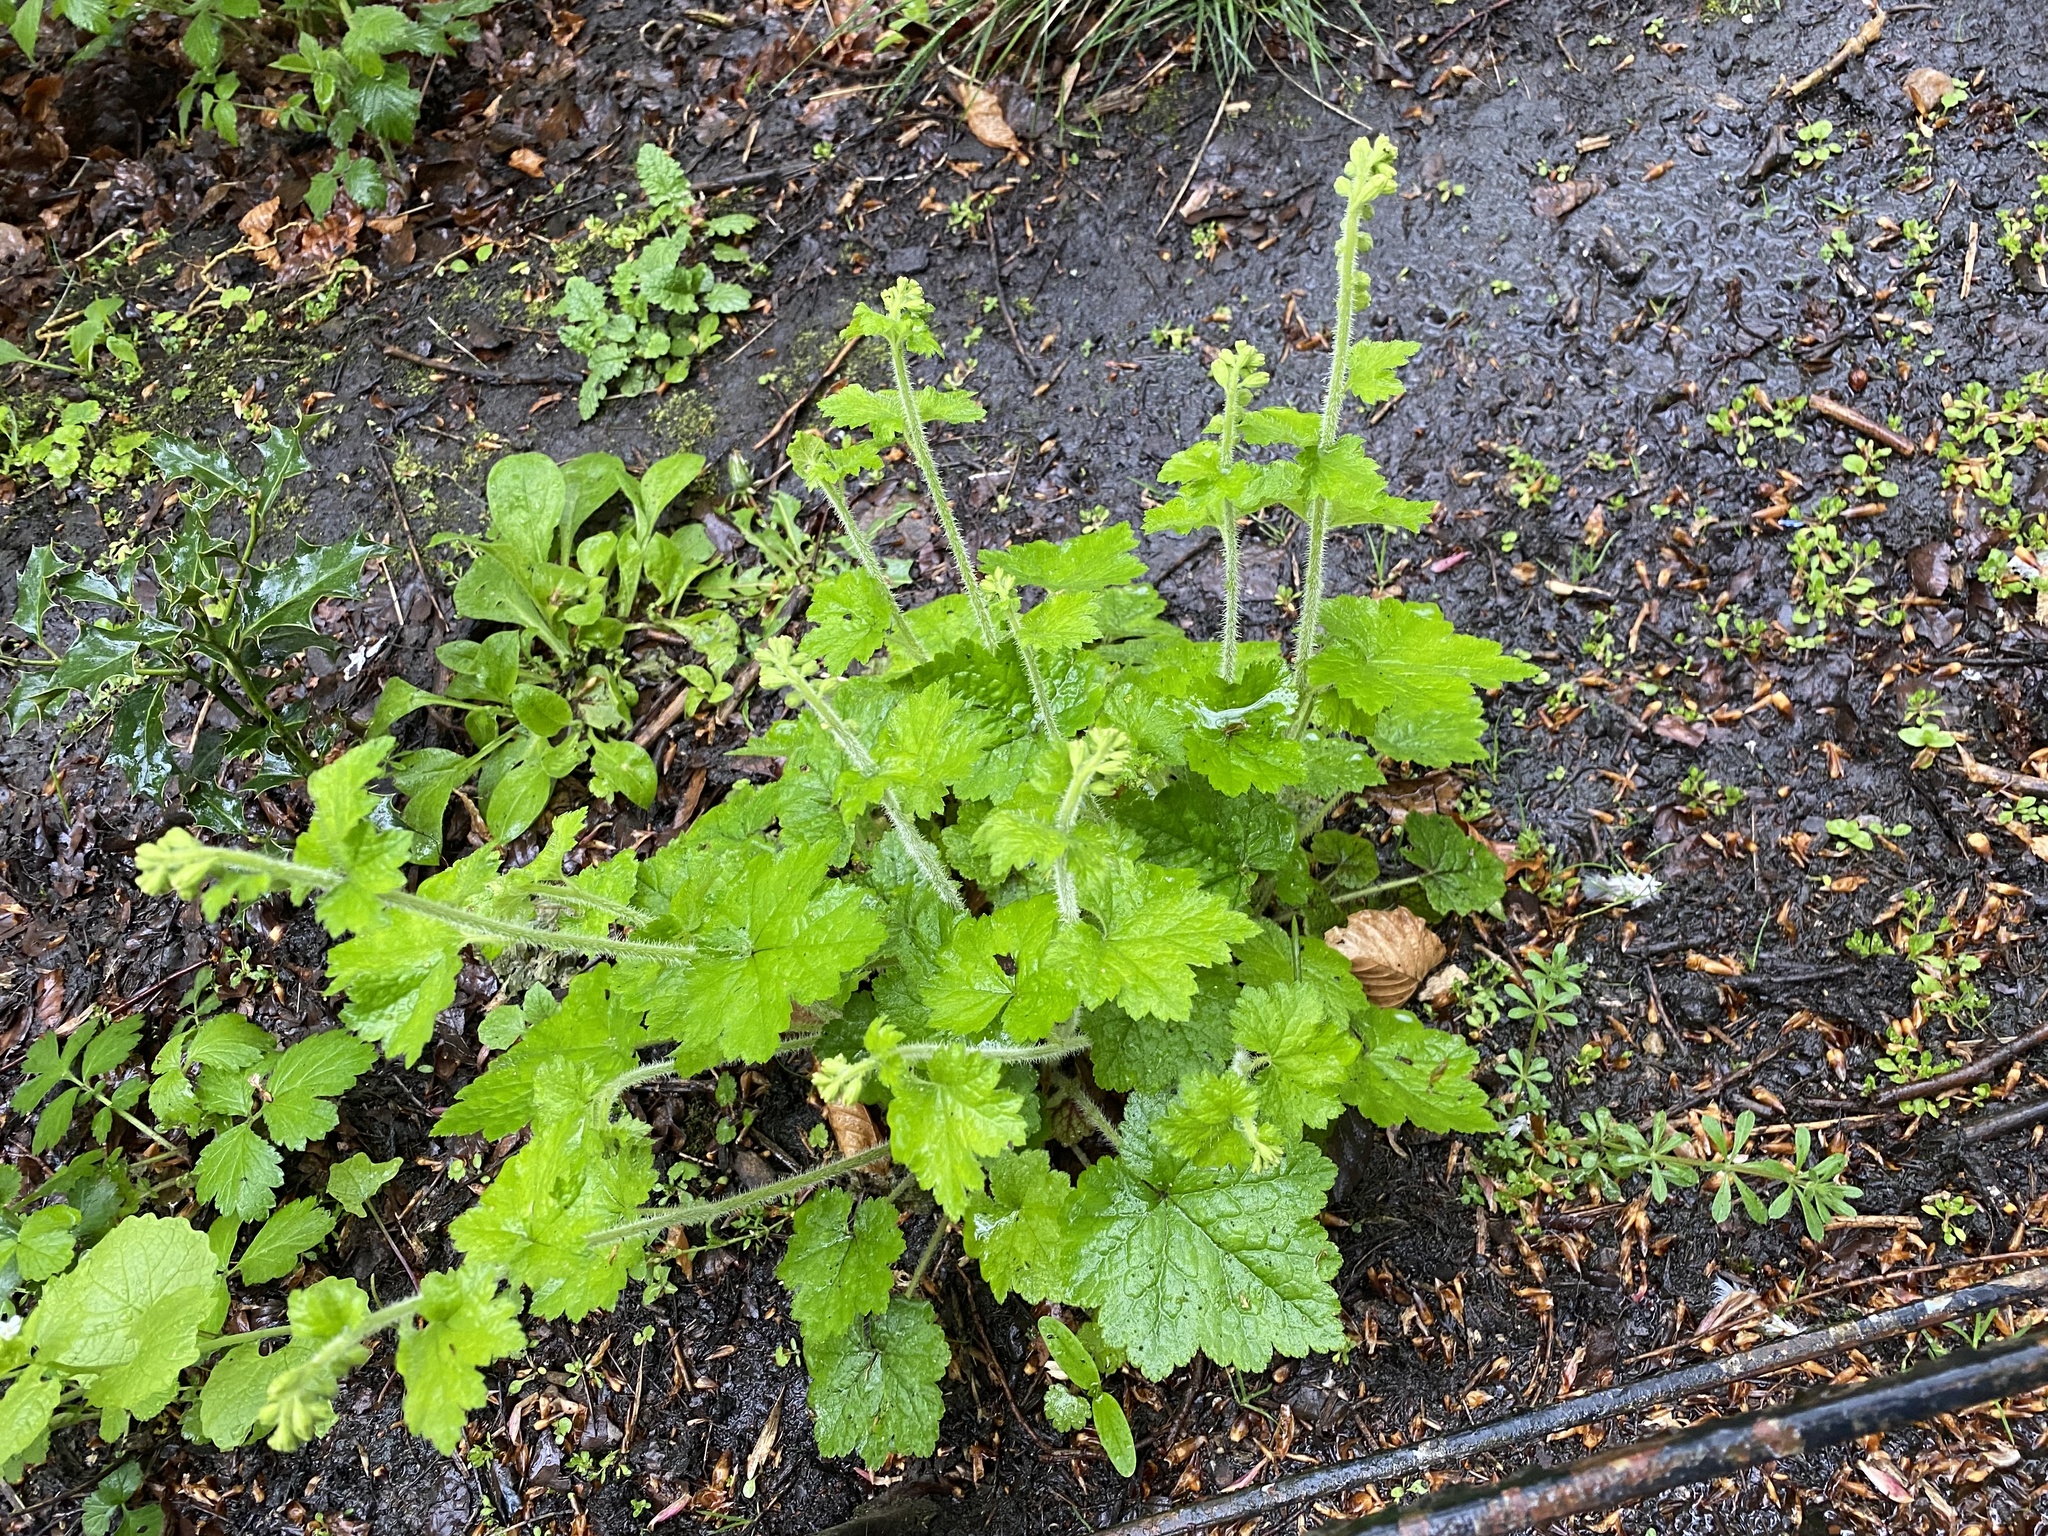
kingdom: Plantae
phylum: Tracheophyta
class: Magnoliopsida
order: Saxifragales
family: Saxifragaceae
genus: Tellima
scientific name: Tellima grandiflora
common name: Fringecups
